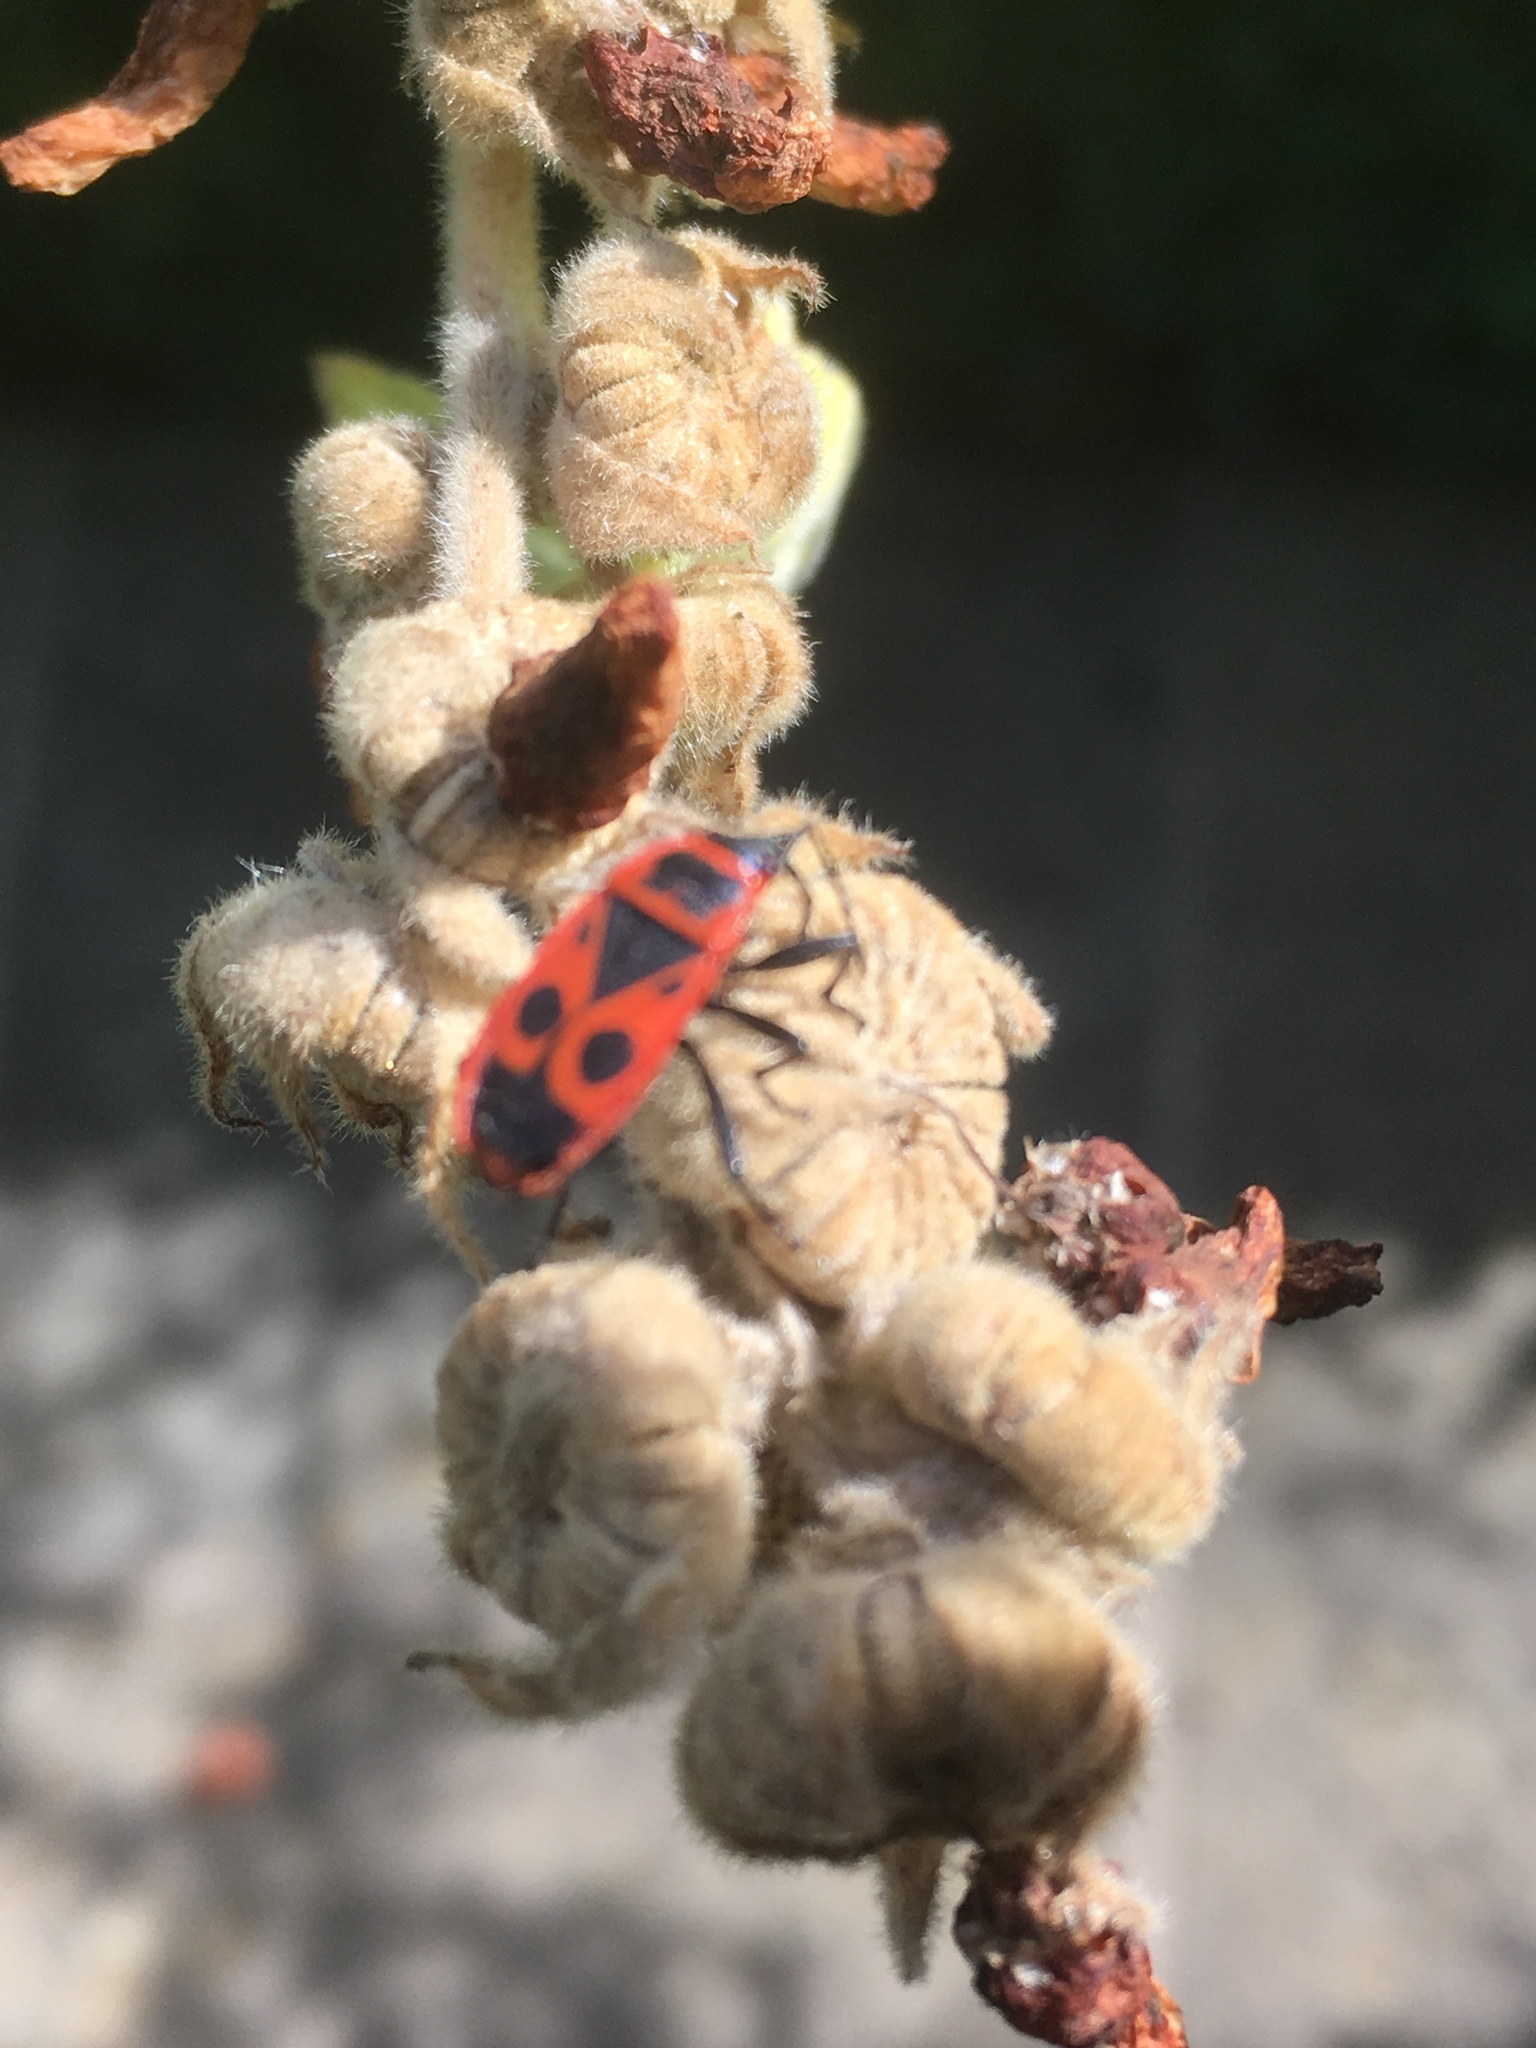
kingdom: Animalia
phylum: Arthropoda
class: Insecta
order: Hemiptera
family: Pyrrhocoridae
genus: Pyrrhocoris
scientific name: Pyrrhocoris apterus
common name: Firebug
